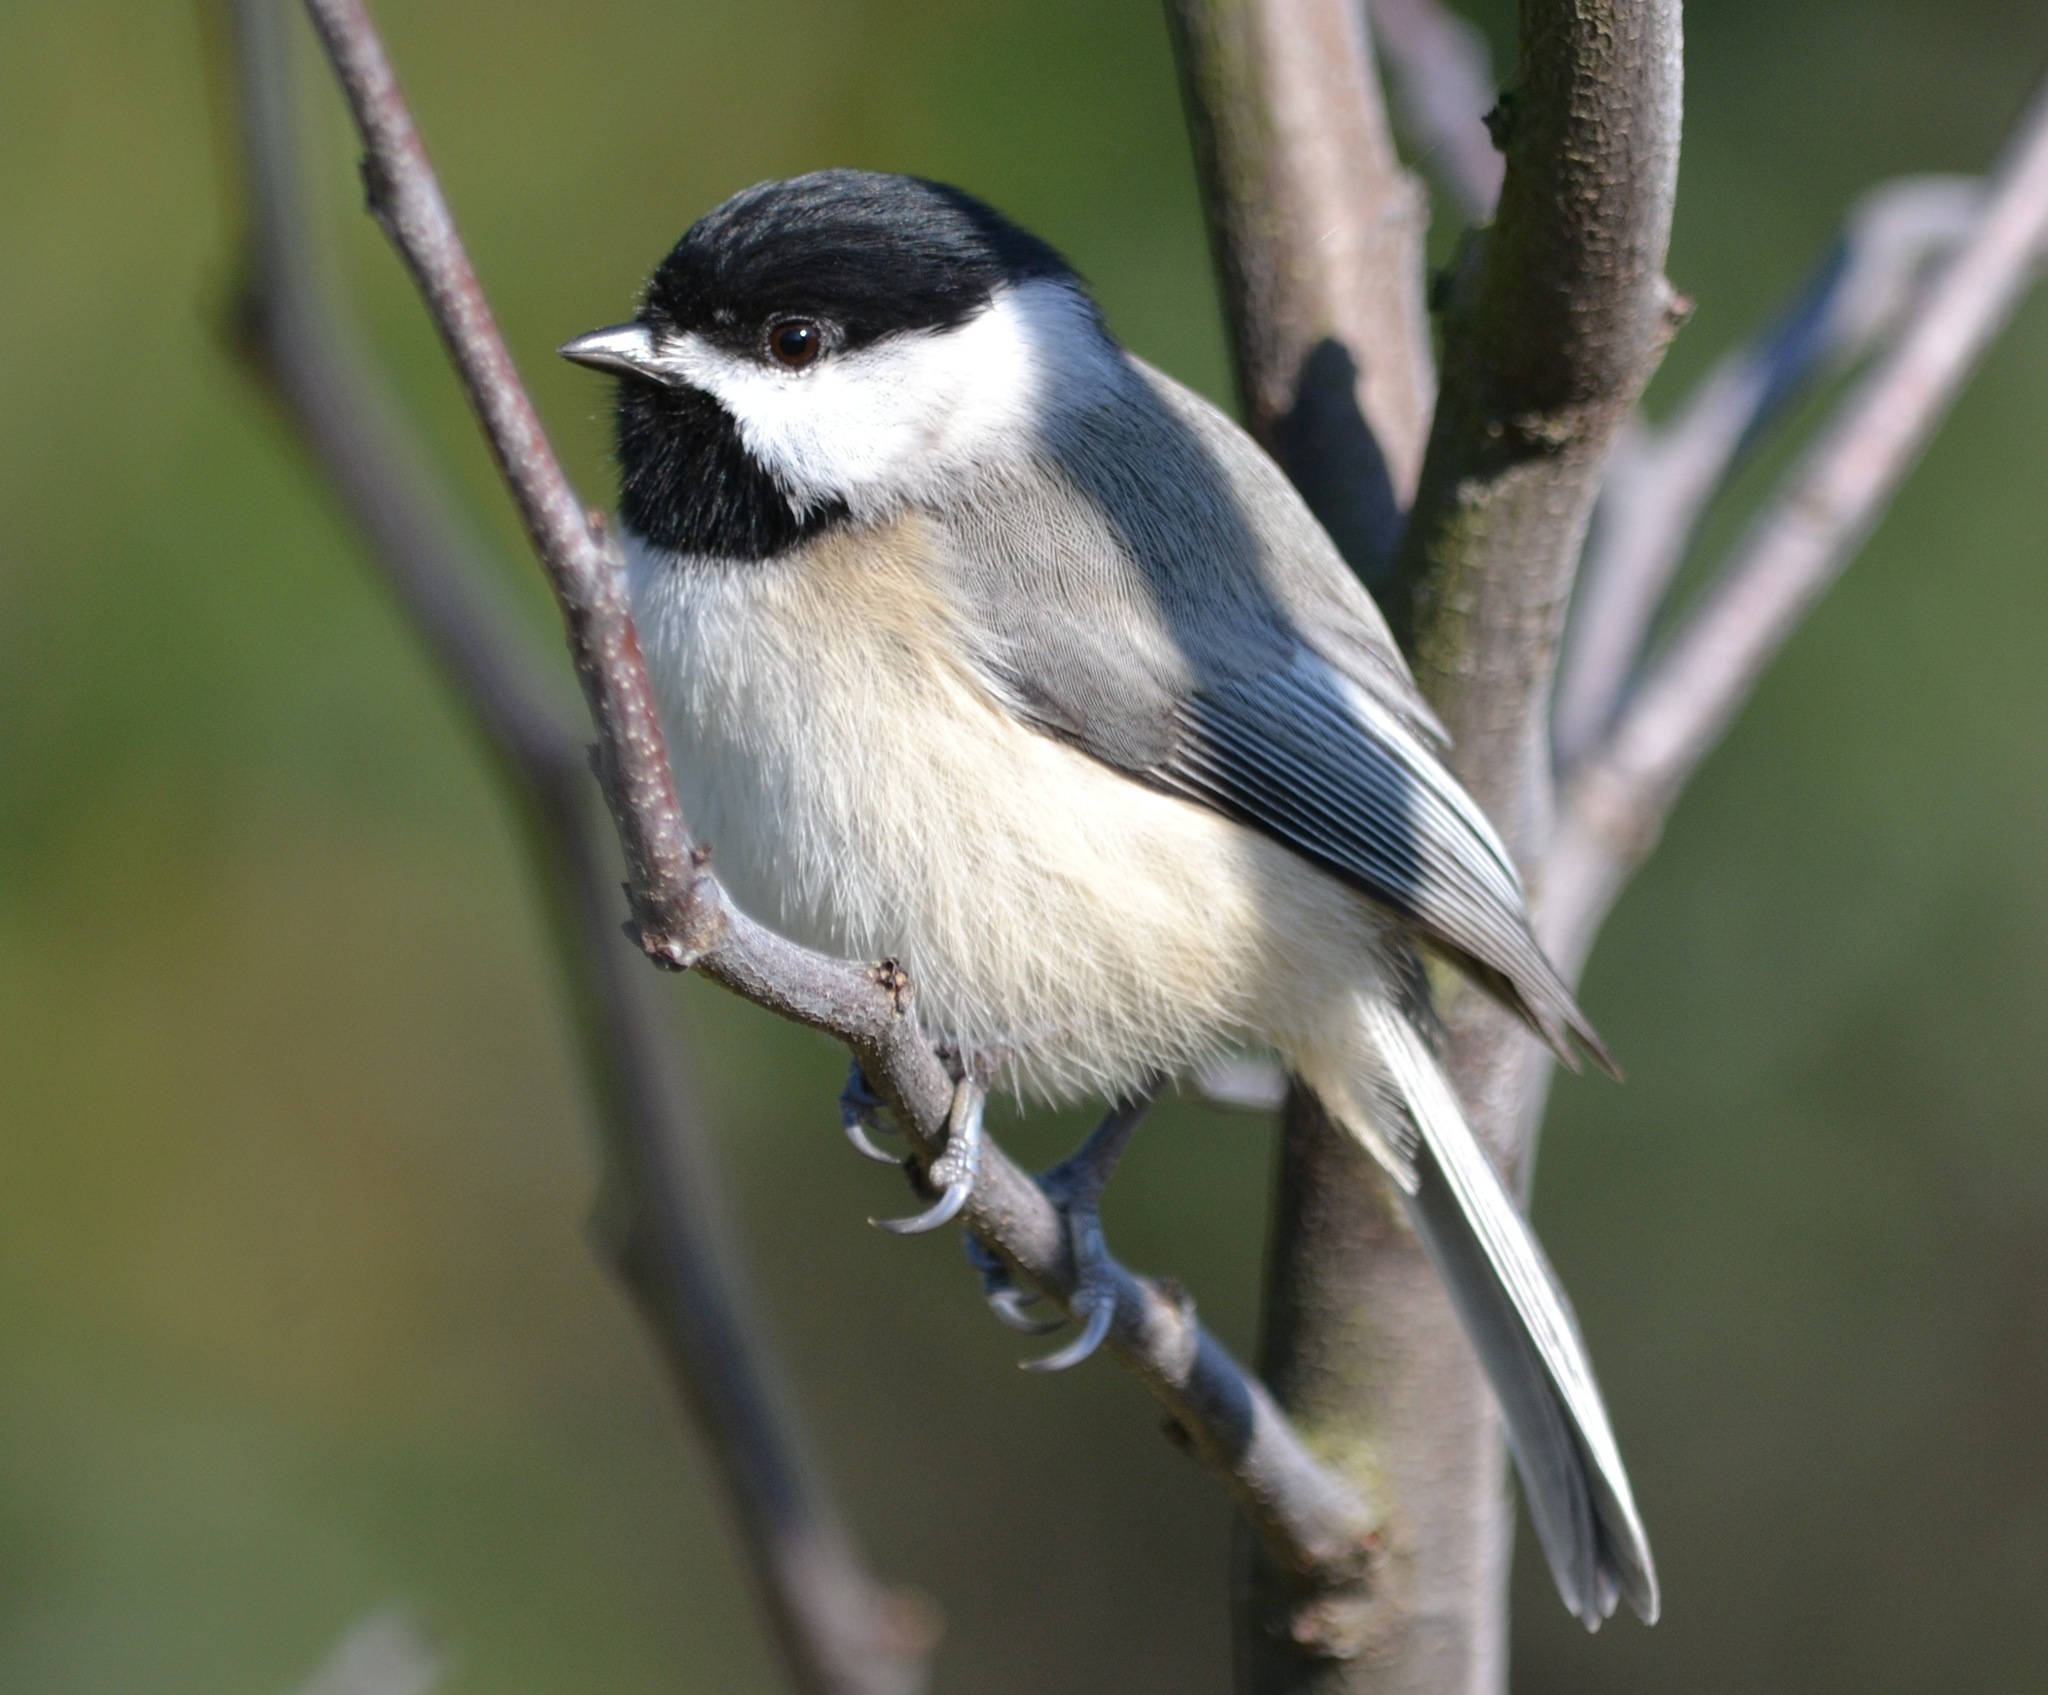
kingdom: Animalia
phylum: Chordata
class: Aves
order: Passeriformes
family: Paridae
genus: Poecile
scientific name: Poecile carolinensis
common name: Carolina chickadee
